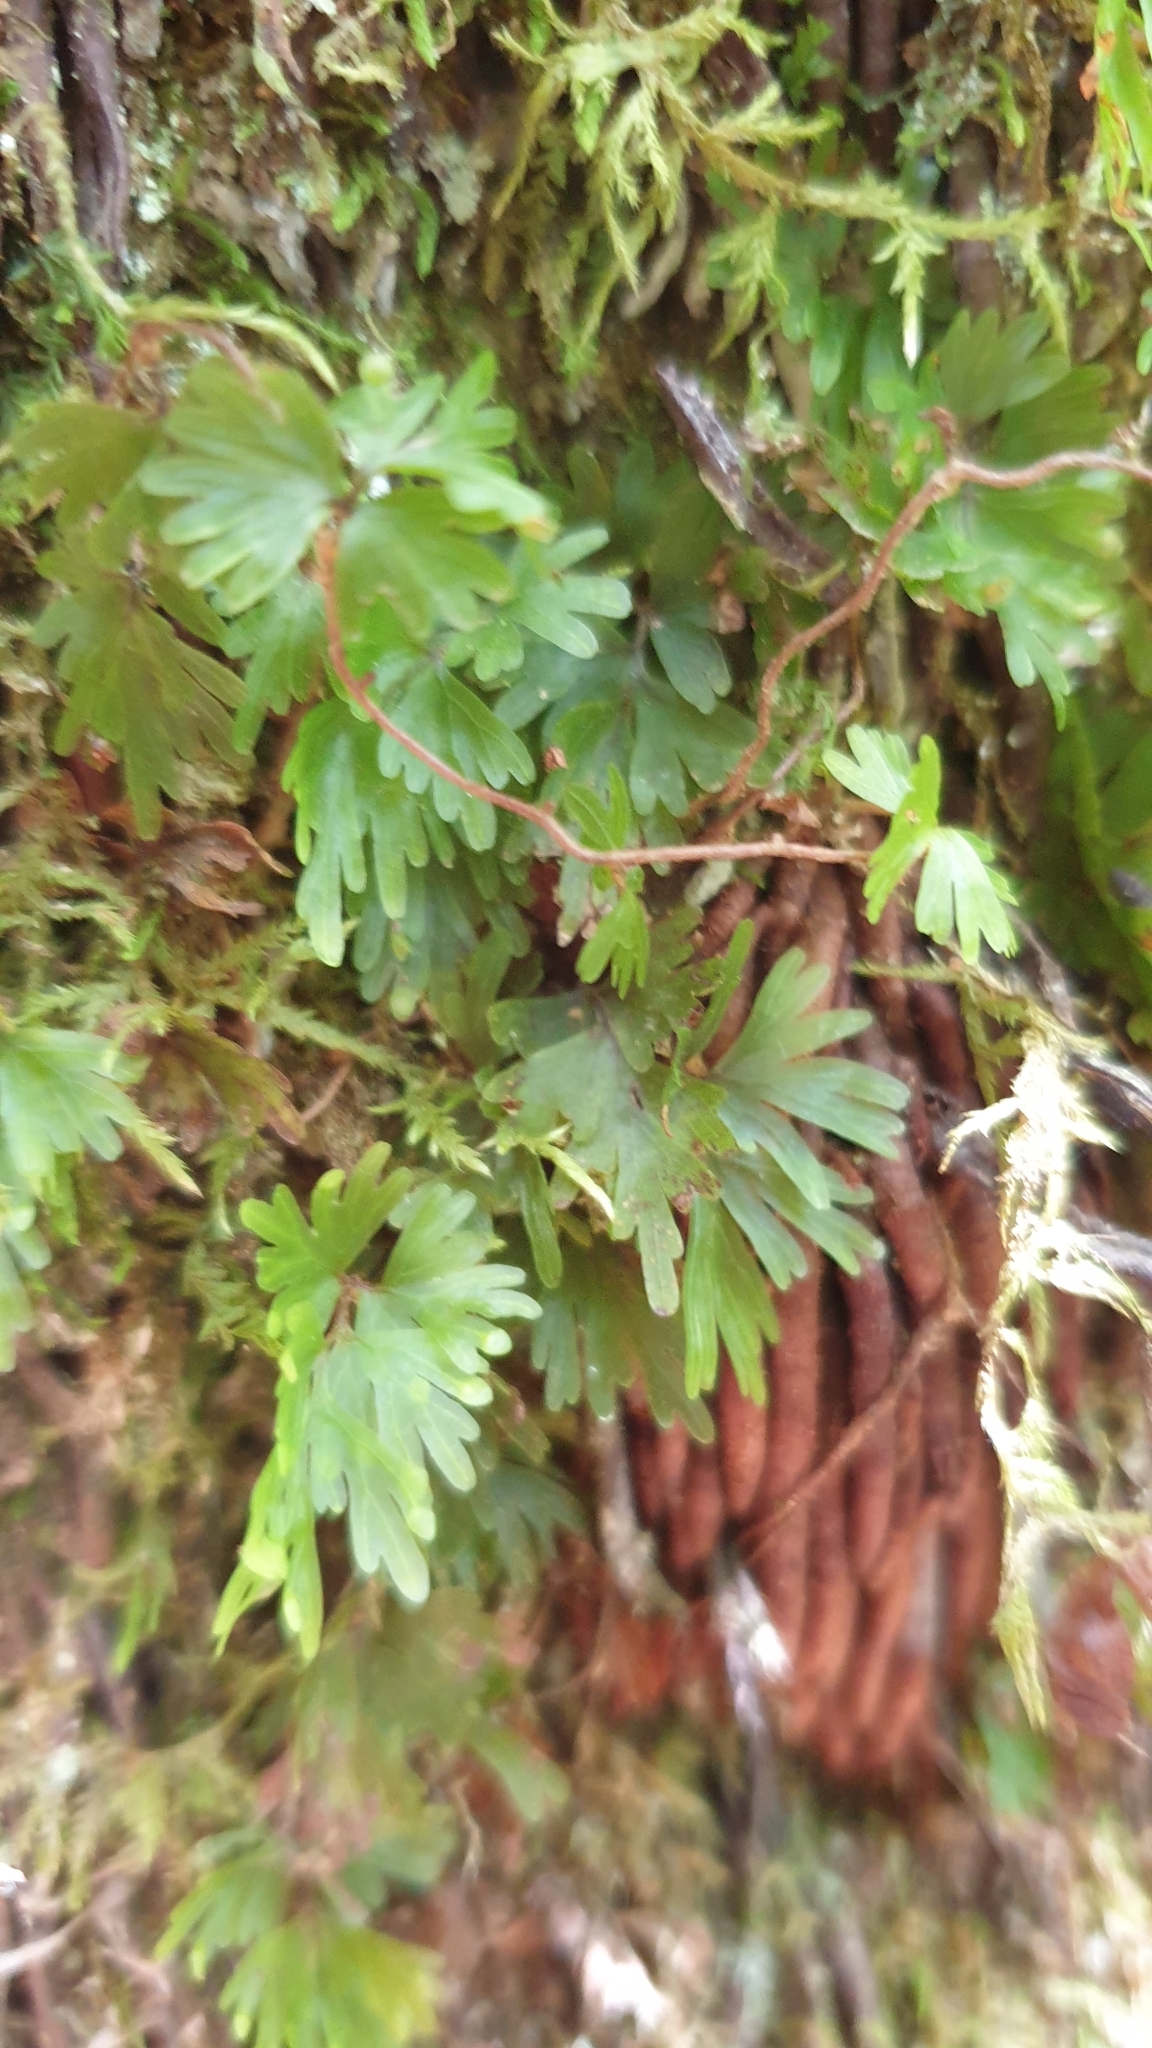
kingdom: Plantae
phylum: Tracheophyta
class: Polypodiopsida
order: Hymenophyllales
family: Hymenophyllaceae
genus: Hymenophyllum
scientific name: Hymenophyllum flabellatum
